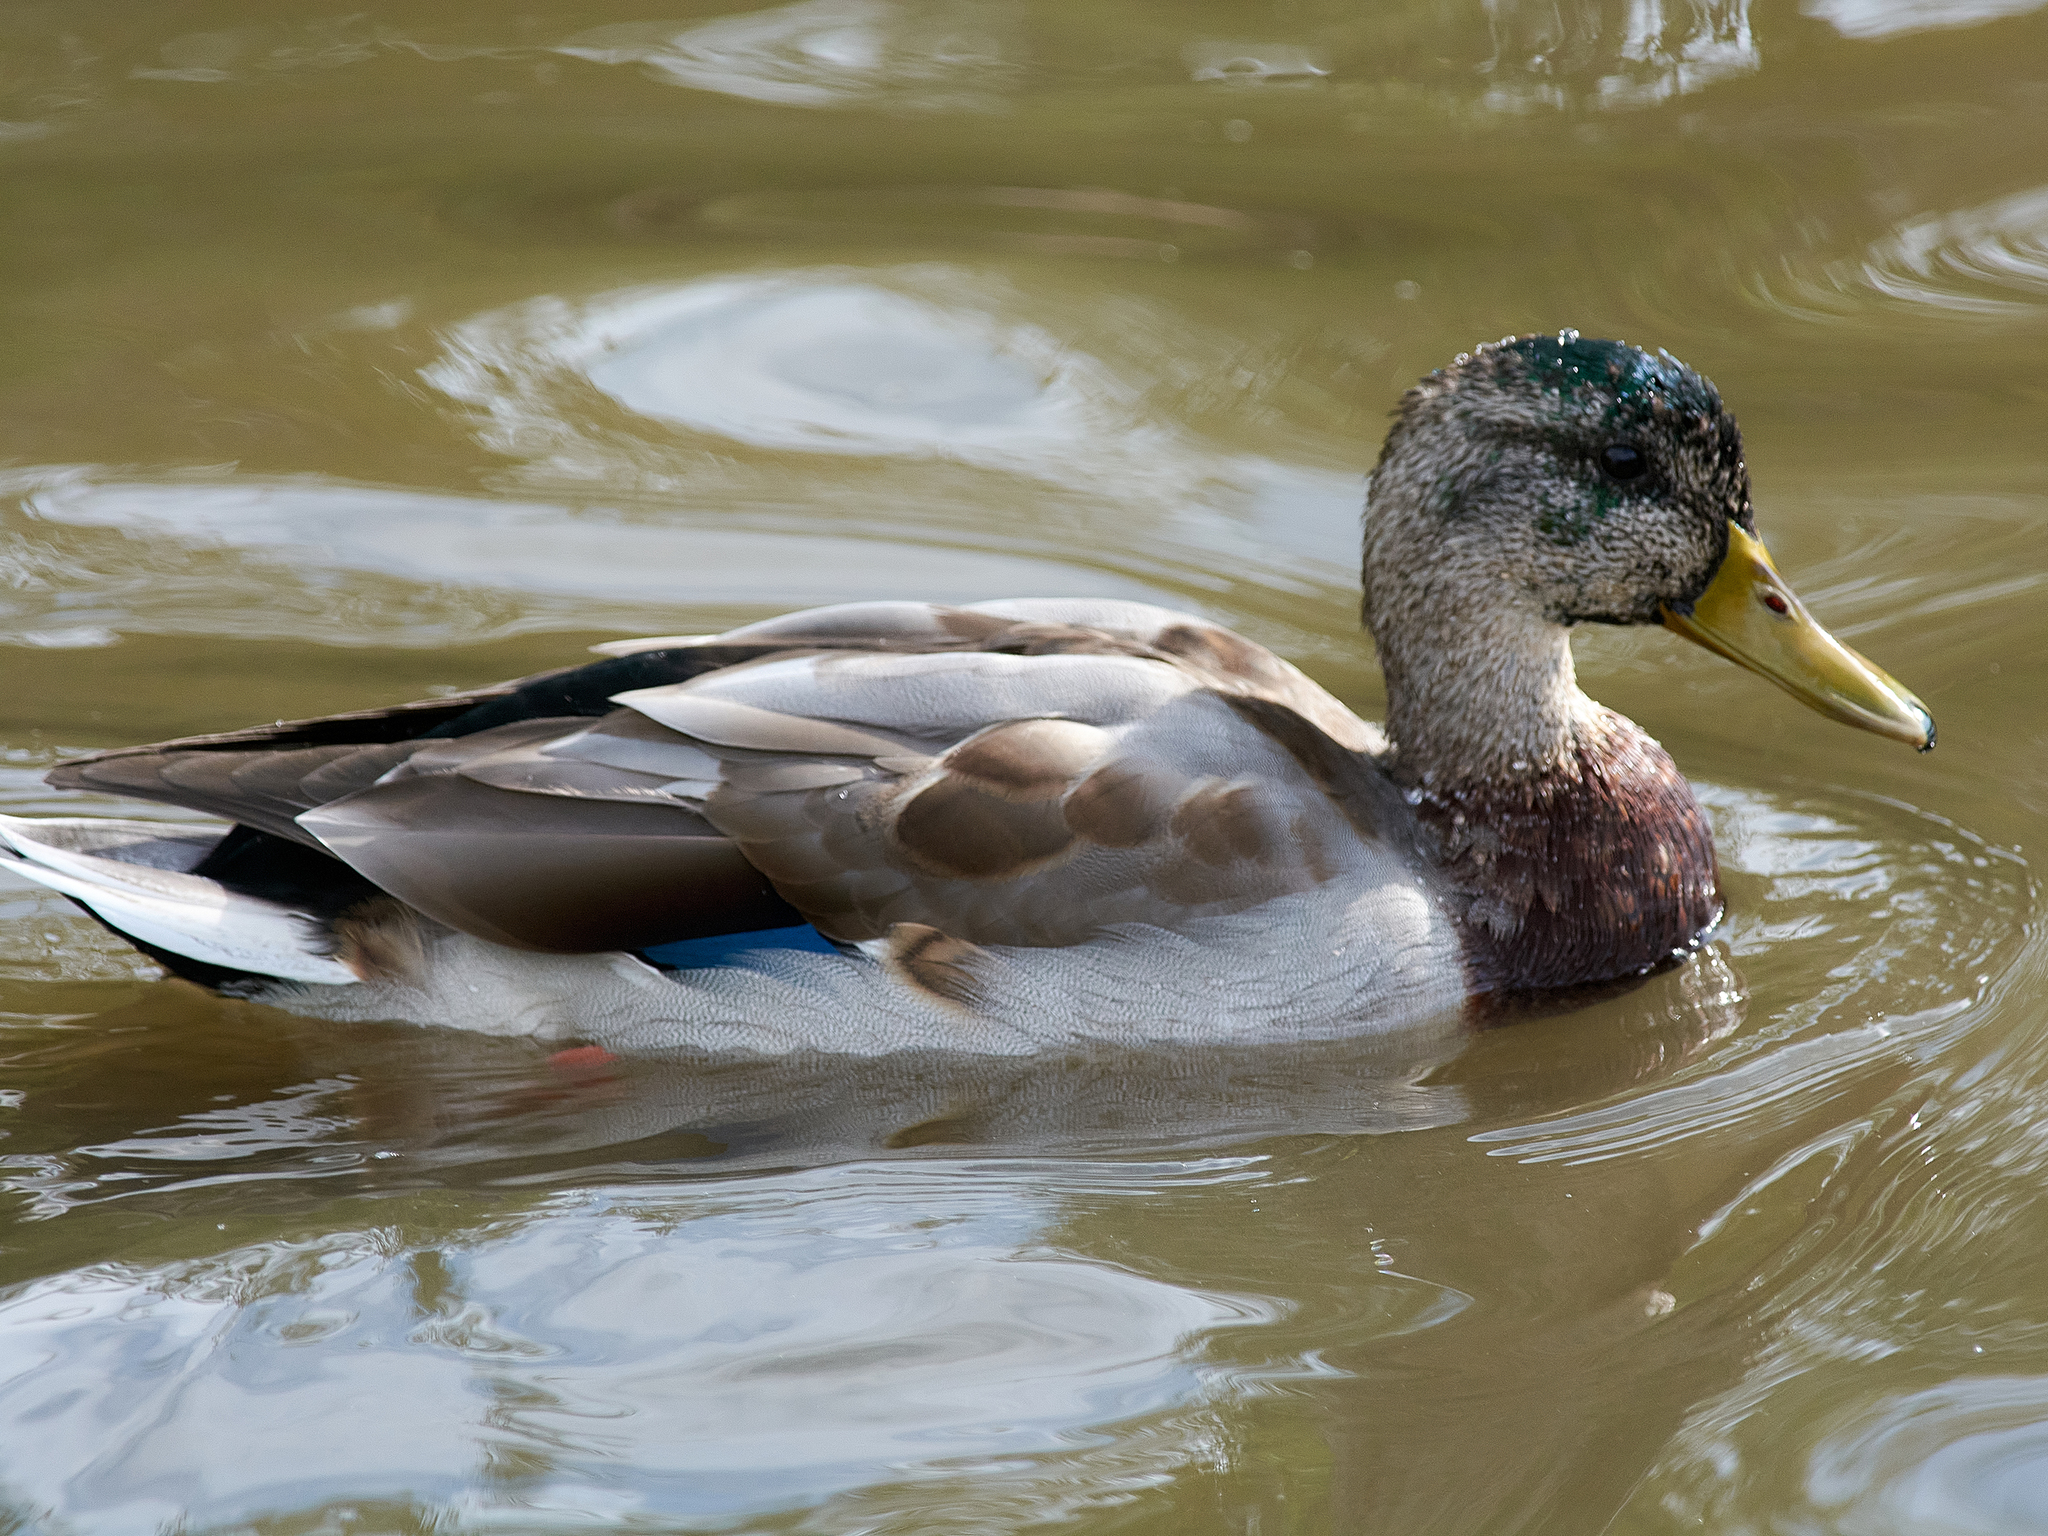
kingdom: Animalia
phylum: Chordata
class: Aves
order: Anseriformes
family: Anatidae
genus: Anas
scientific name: Anas platyrhynchos
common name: Mallard
